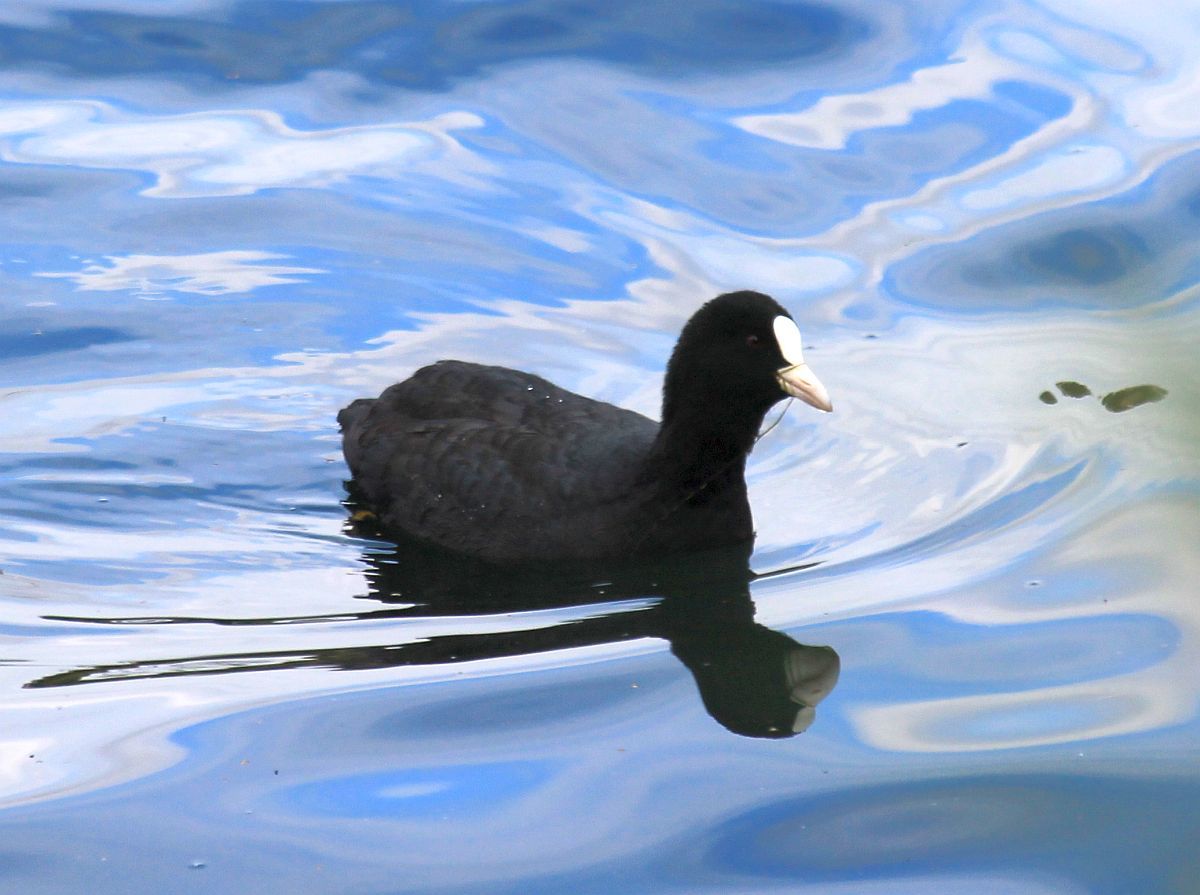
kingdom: Animalia
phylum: Chordata
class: Aves
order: Gruiformes
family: Rallidae
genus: Fulica
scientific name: Fulica atra
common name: Eurasian coot
